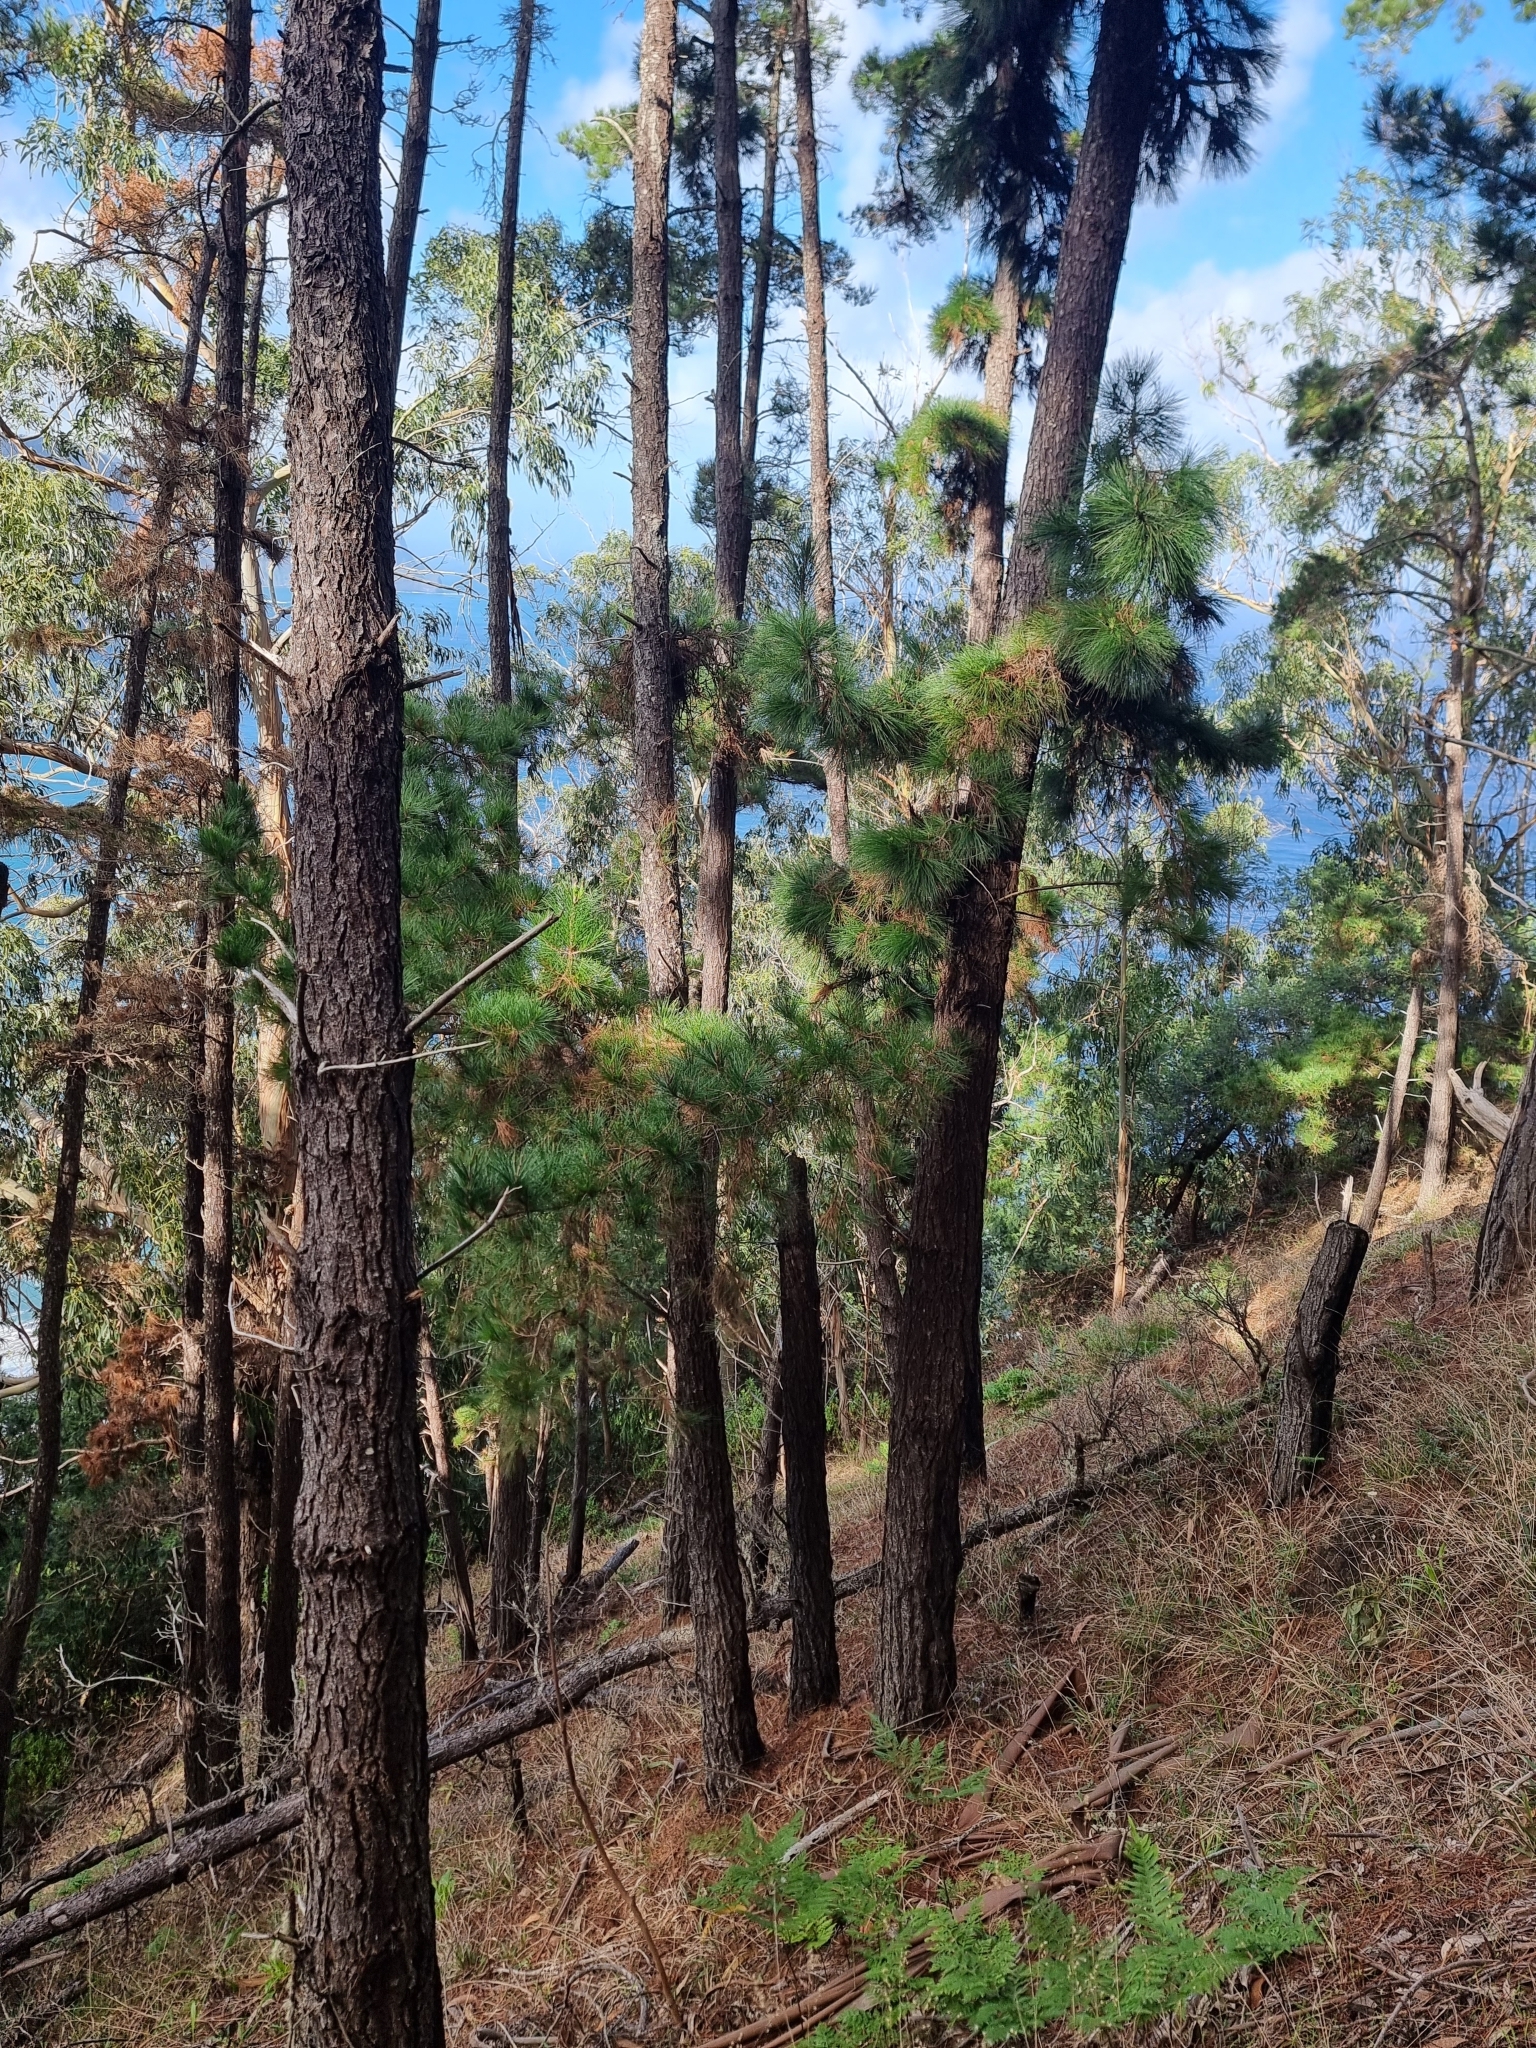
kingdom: Plantae
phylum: Tracheophyta
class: Pinopsida
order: Pinales
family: Pinaceae
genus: Pinus
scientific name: Pinus pinaster
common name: Maritime pine
